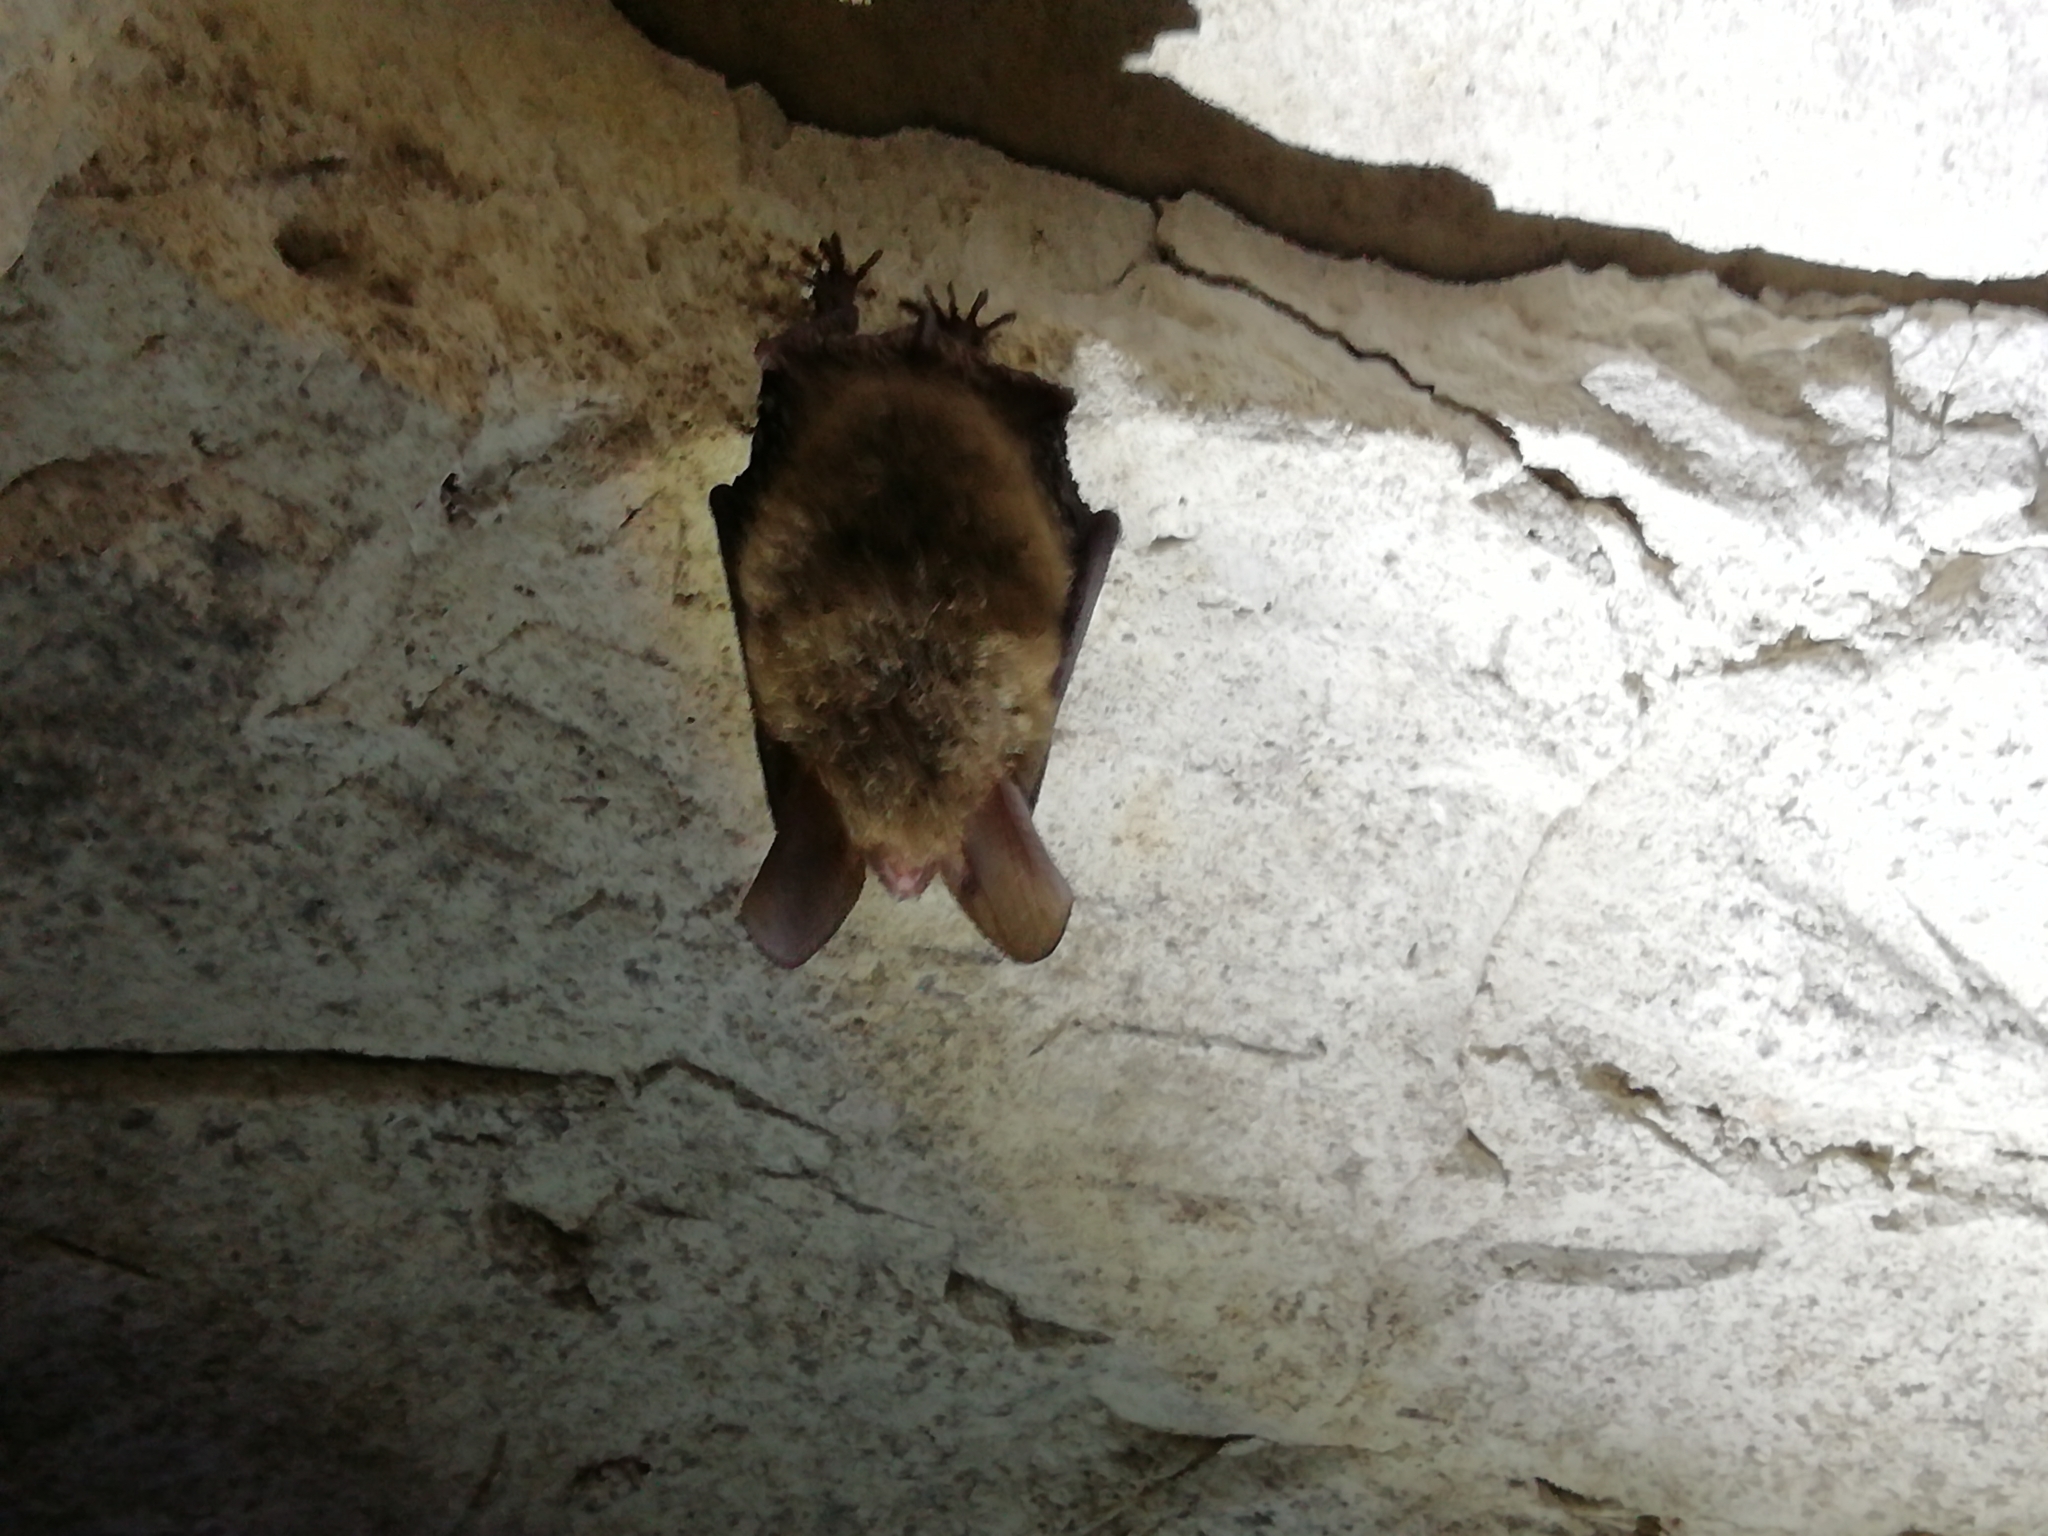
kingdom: Animalia
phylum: Chordata
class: Mammalia
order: Chiroptera
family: Vespertilionidae
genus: Myotis
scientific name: Myotis bechsteinii
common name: Bechstein's myotis
